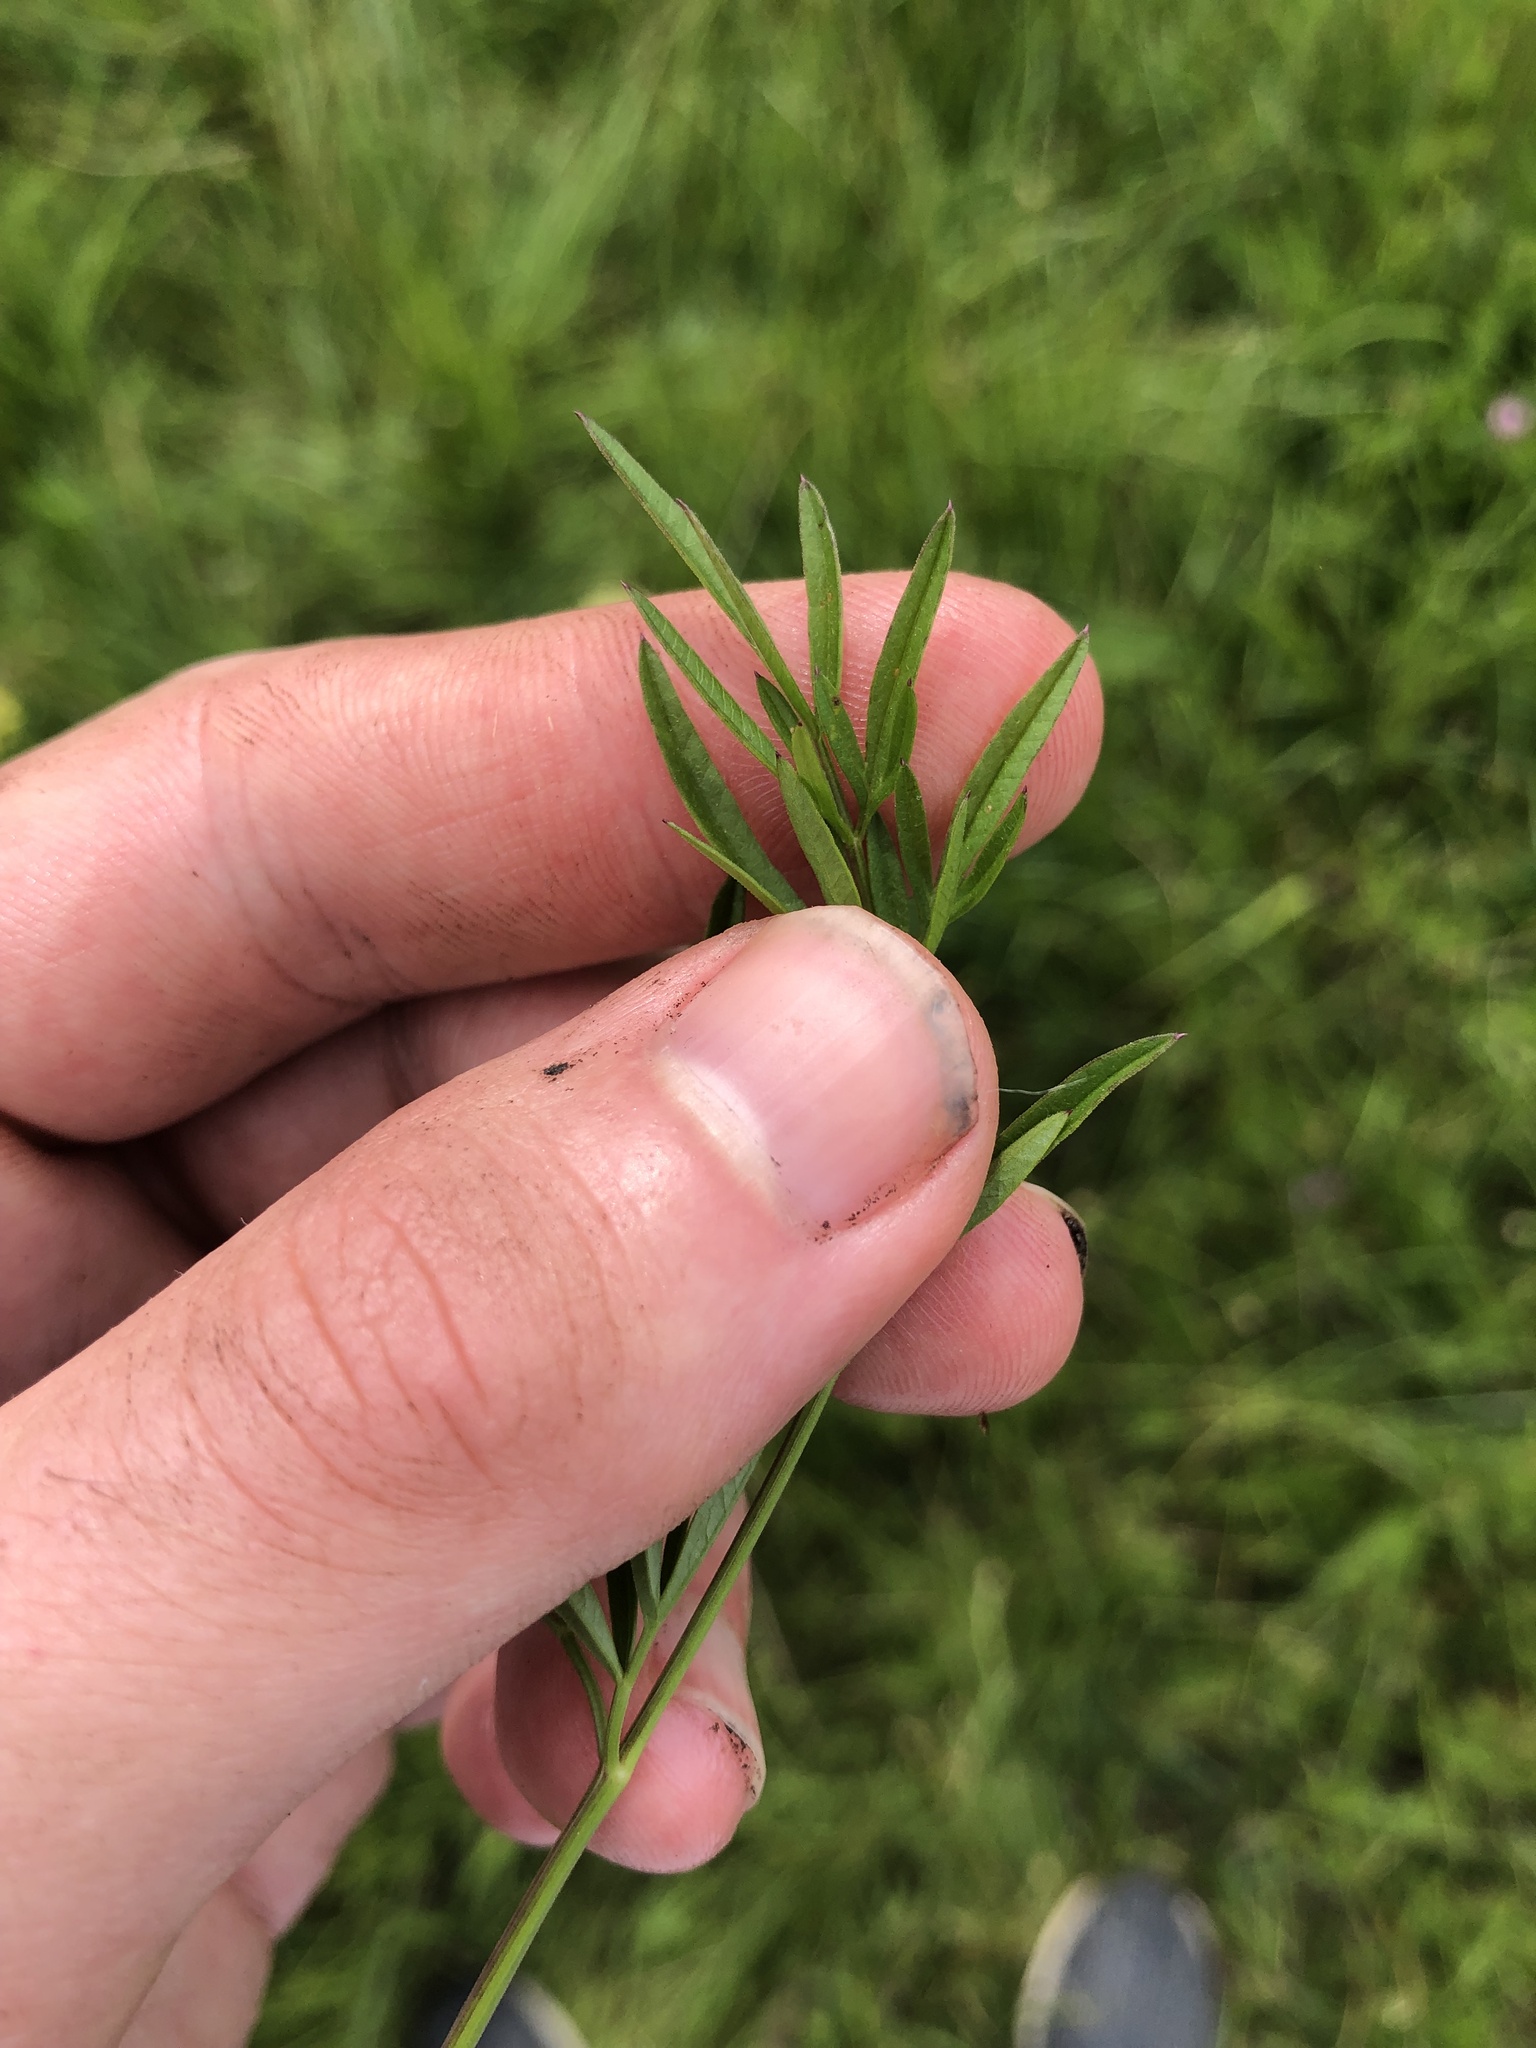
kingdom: Plantae
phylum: Tracheophyta
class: Magnoliopsida
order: Apiales
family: Apiaceae
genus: Silaum
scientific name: Silaum silaus
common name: Pepper-saxifrage
